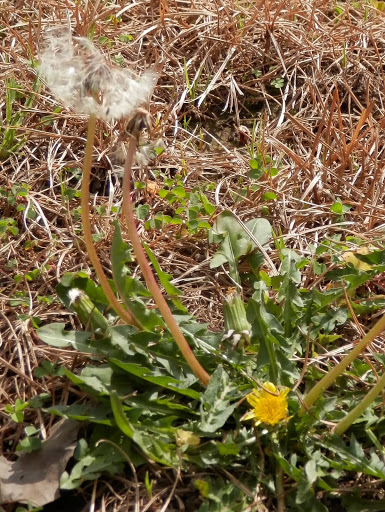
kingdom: Plantae
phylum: Tracheophyta
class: Magnoliopsida
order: Asterales
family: Asteraceae
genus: Taraxacum
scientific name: Taraxacum officinale
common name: Common dandelion
